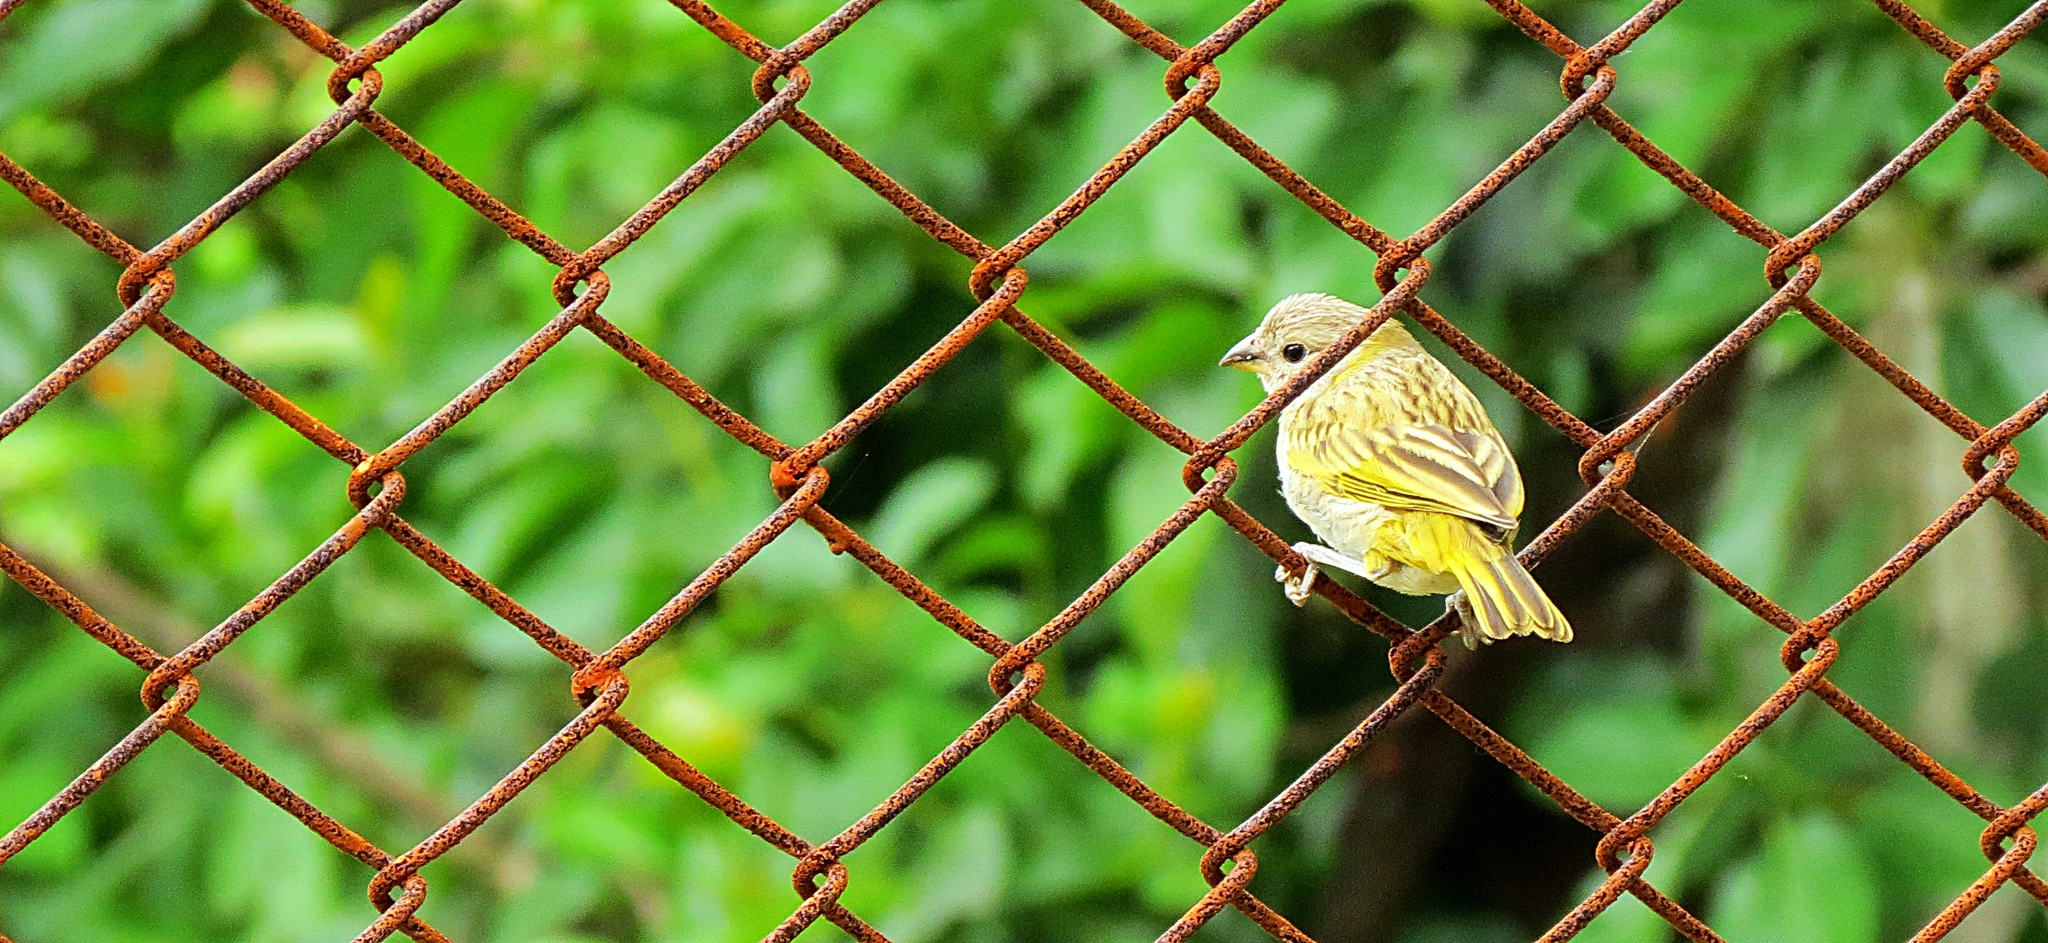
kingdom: Animalia
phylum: Chordata
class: Aves
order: Passeriformes
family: Thraupidae
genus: Sicalis
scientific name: Sicalis flaveola
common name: Saffron finch
